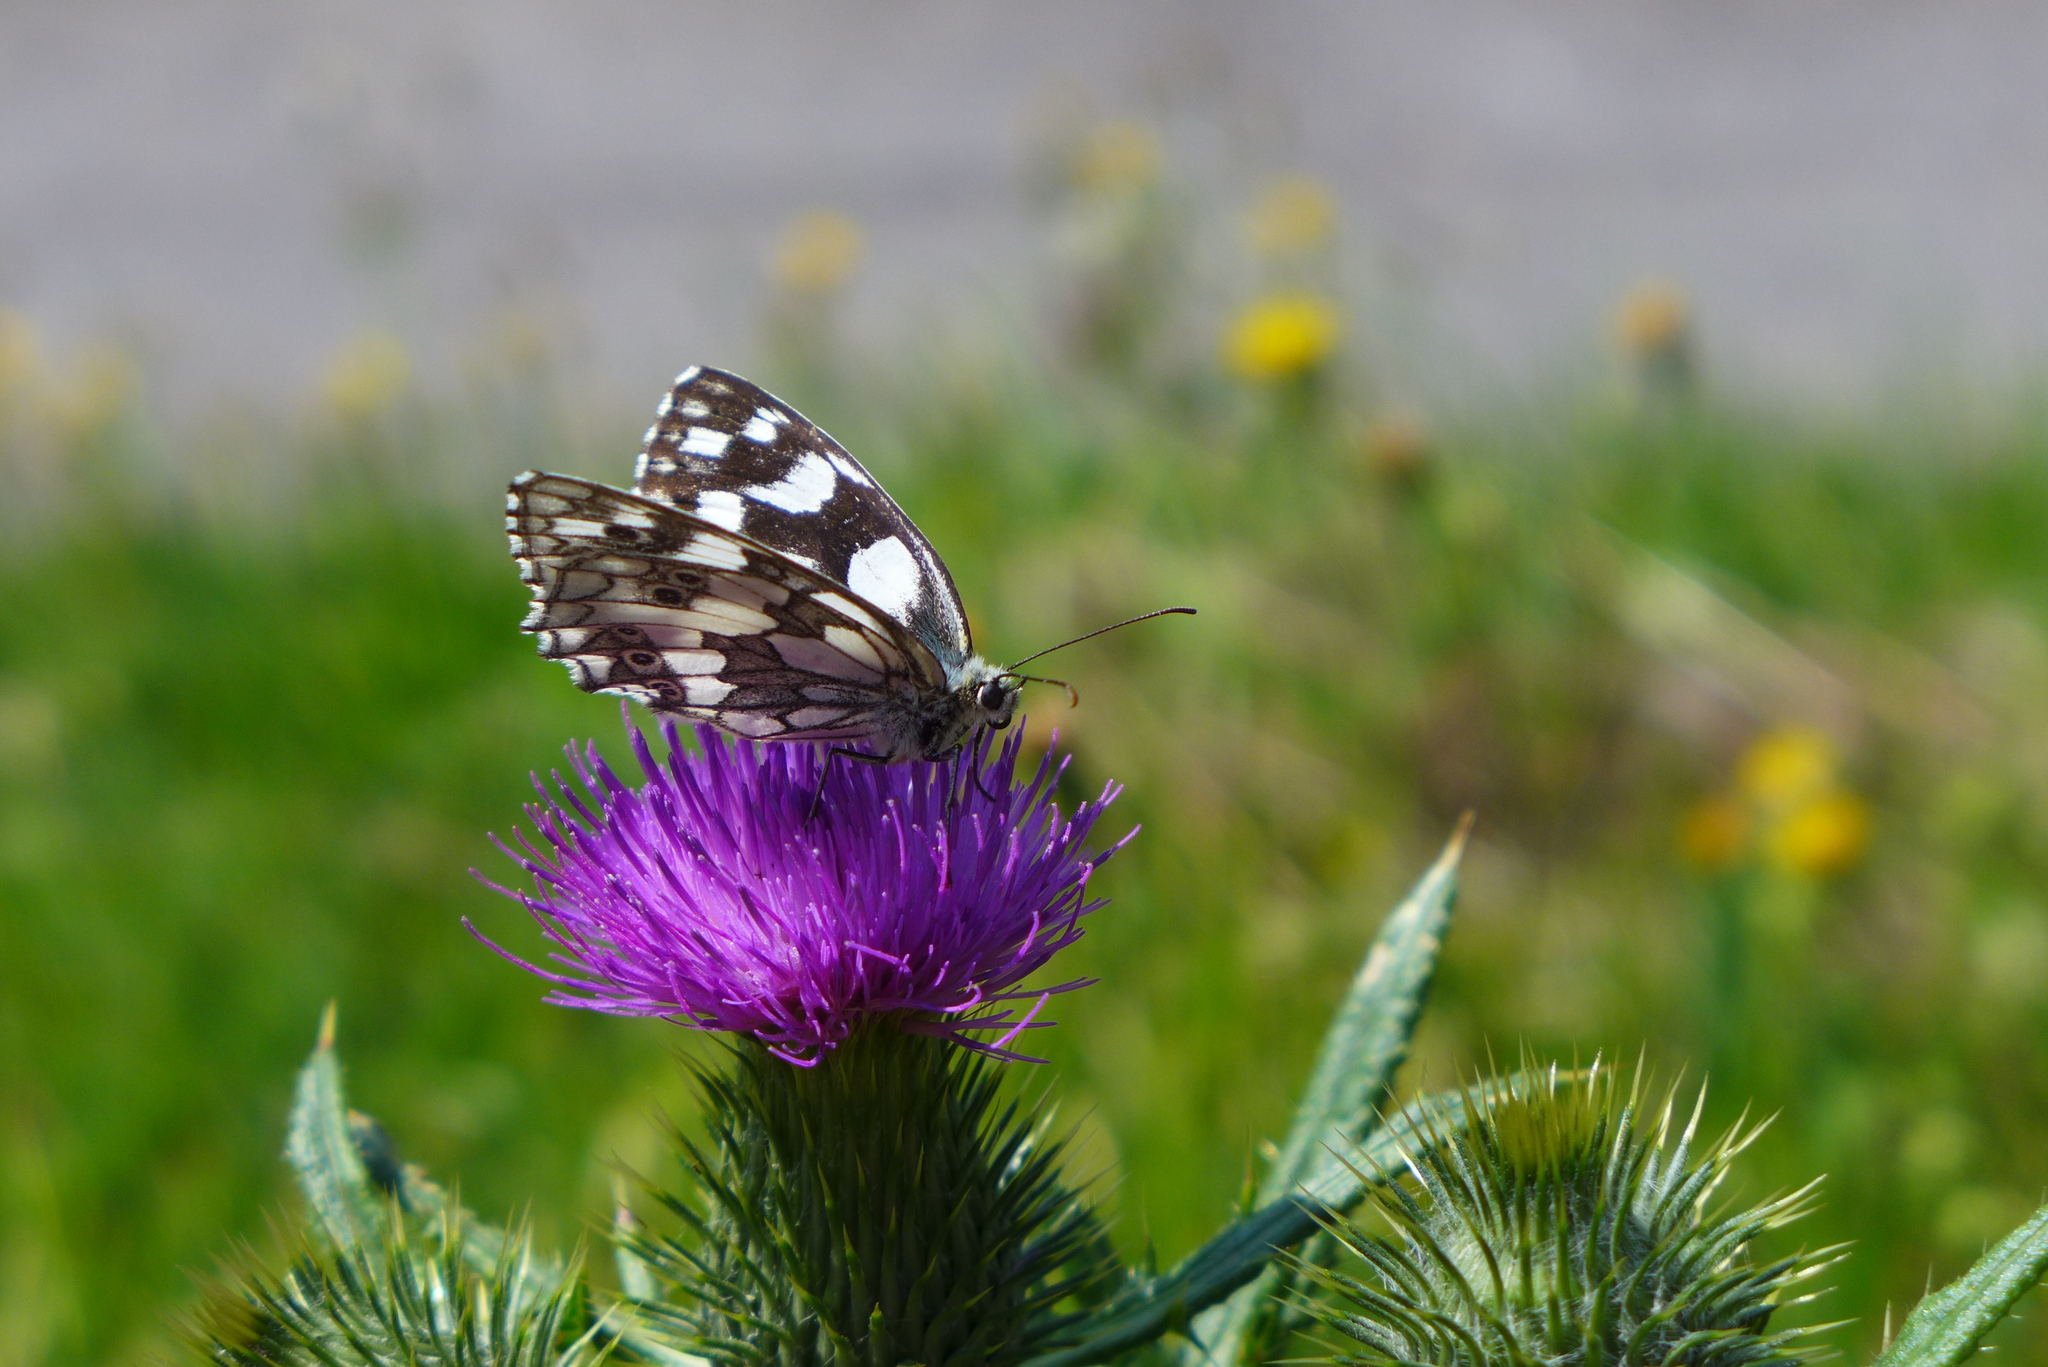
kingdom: Animalia
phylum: Arthropoda
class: Insecta
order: Lepidoptera
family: Nymphalidae
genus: Melanargia
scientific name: Melanargia galathea
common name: Marbled white
